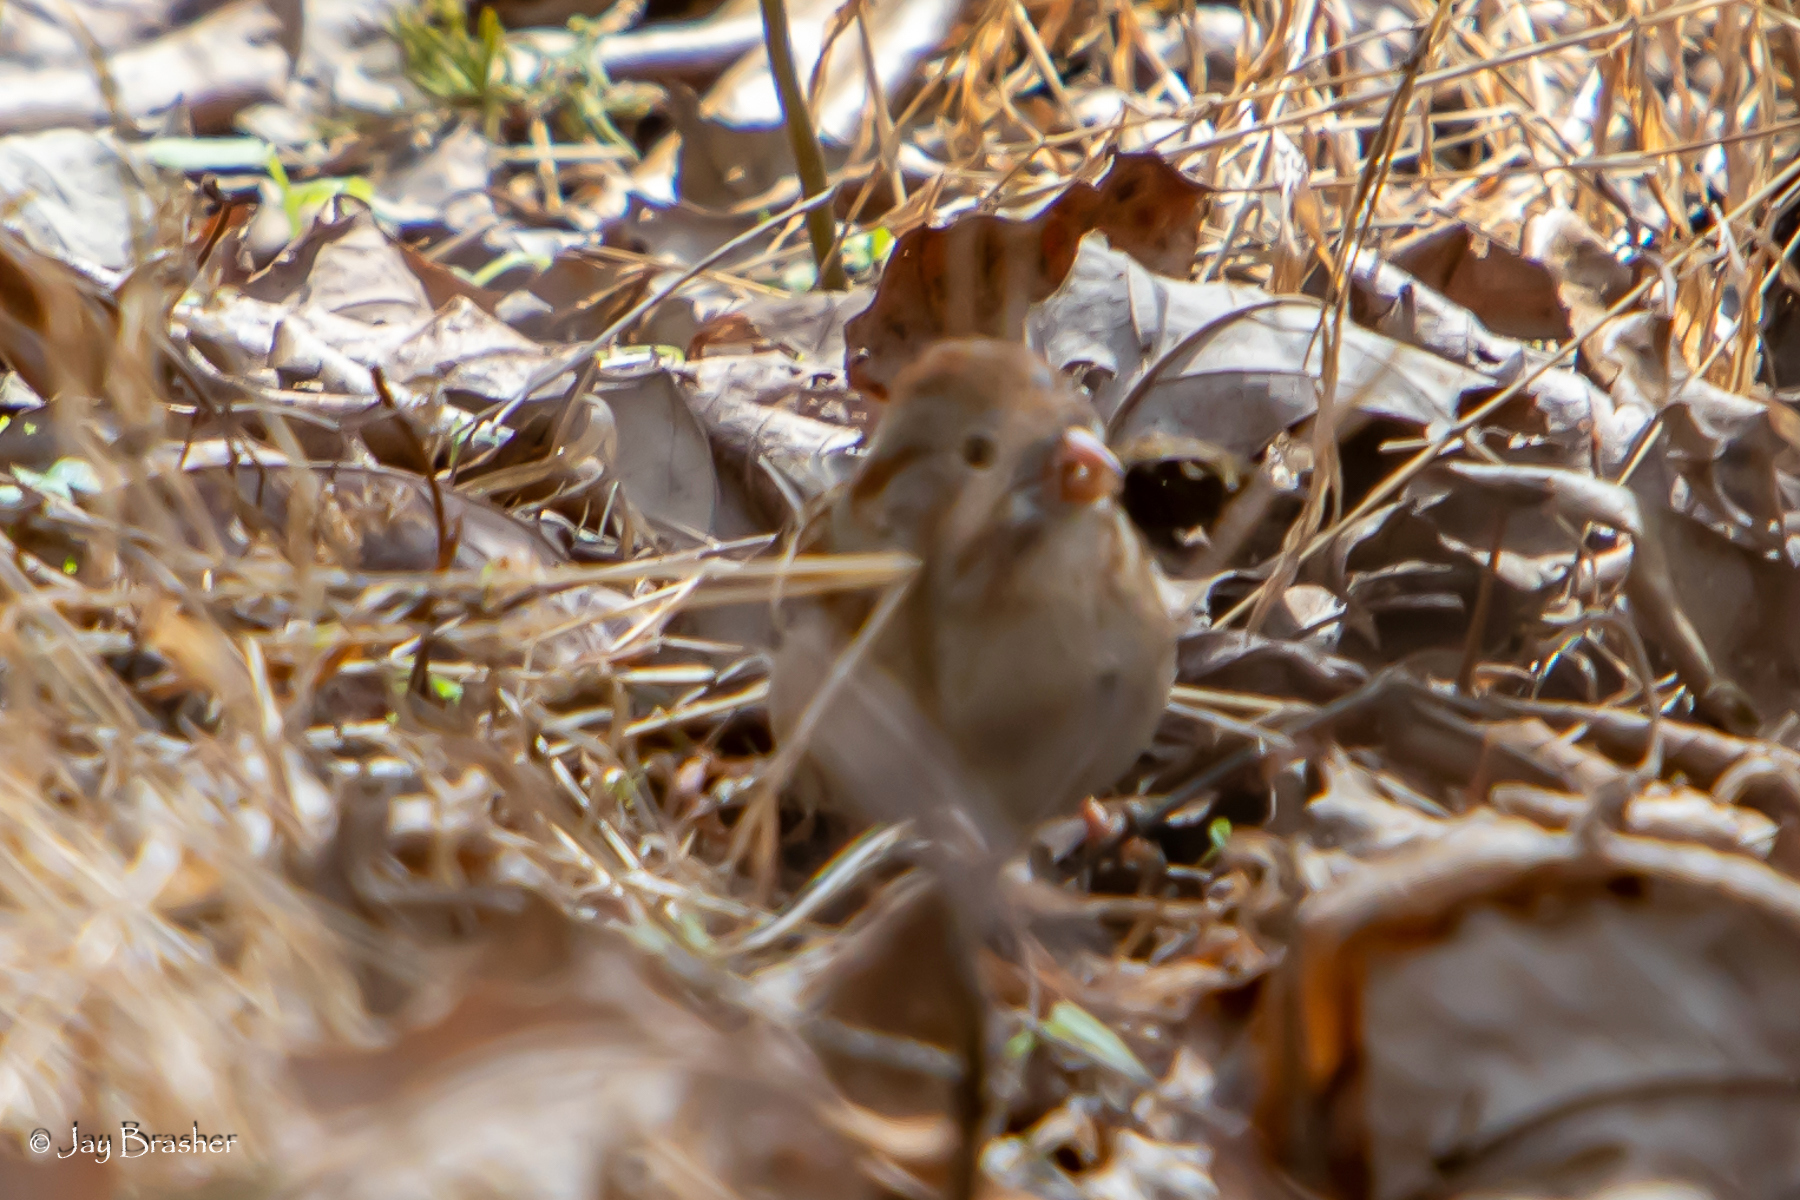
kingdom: Animalia
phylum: Chordata
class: Aves
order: Passeriformes
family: Passerellidae
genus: Spizella
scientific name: Spizella pusilla
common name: Field sparrow
